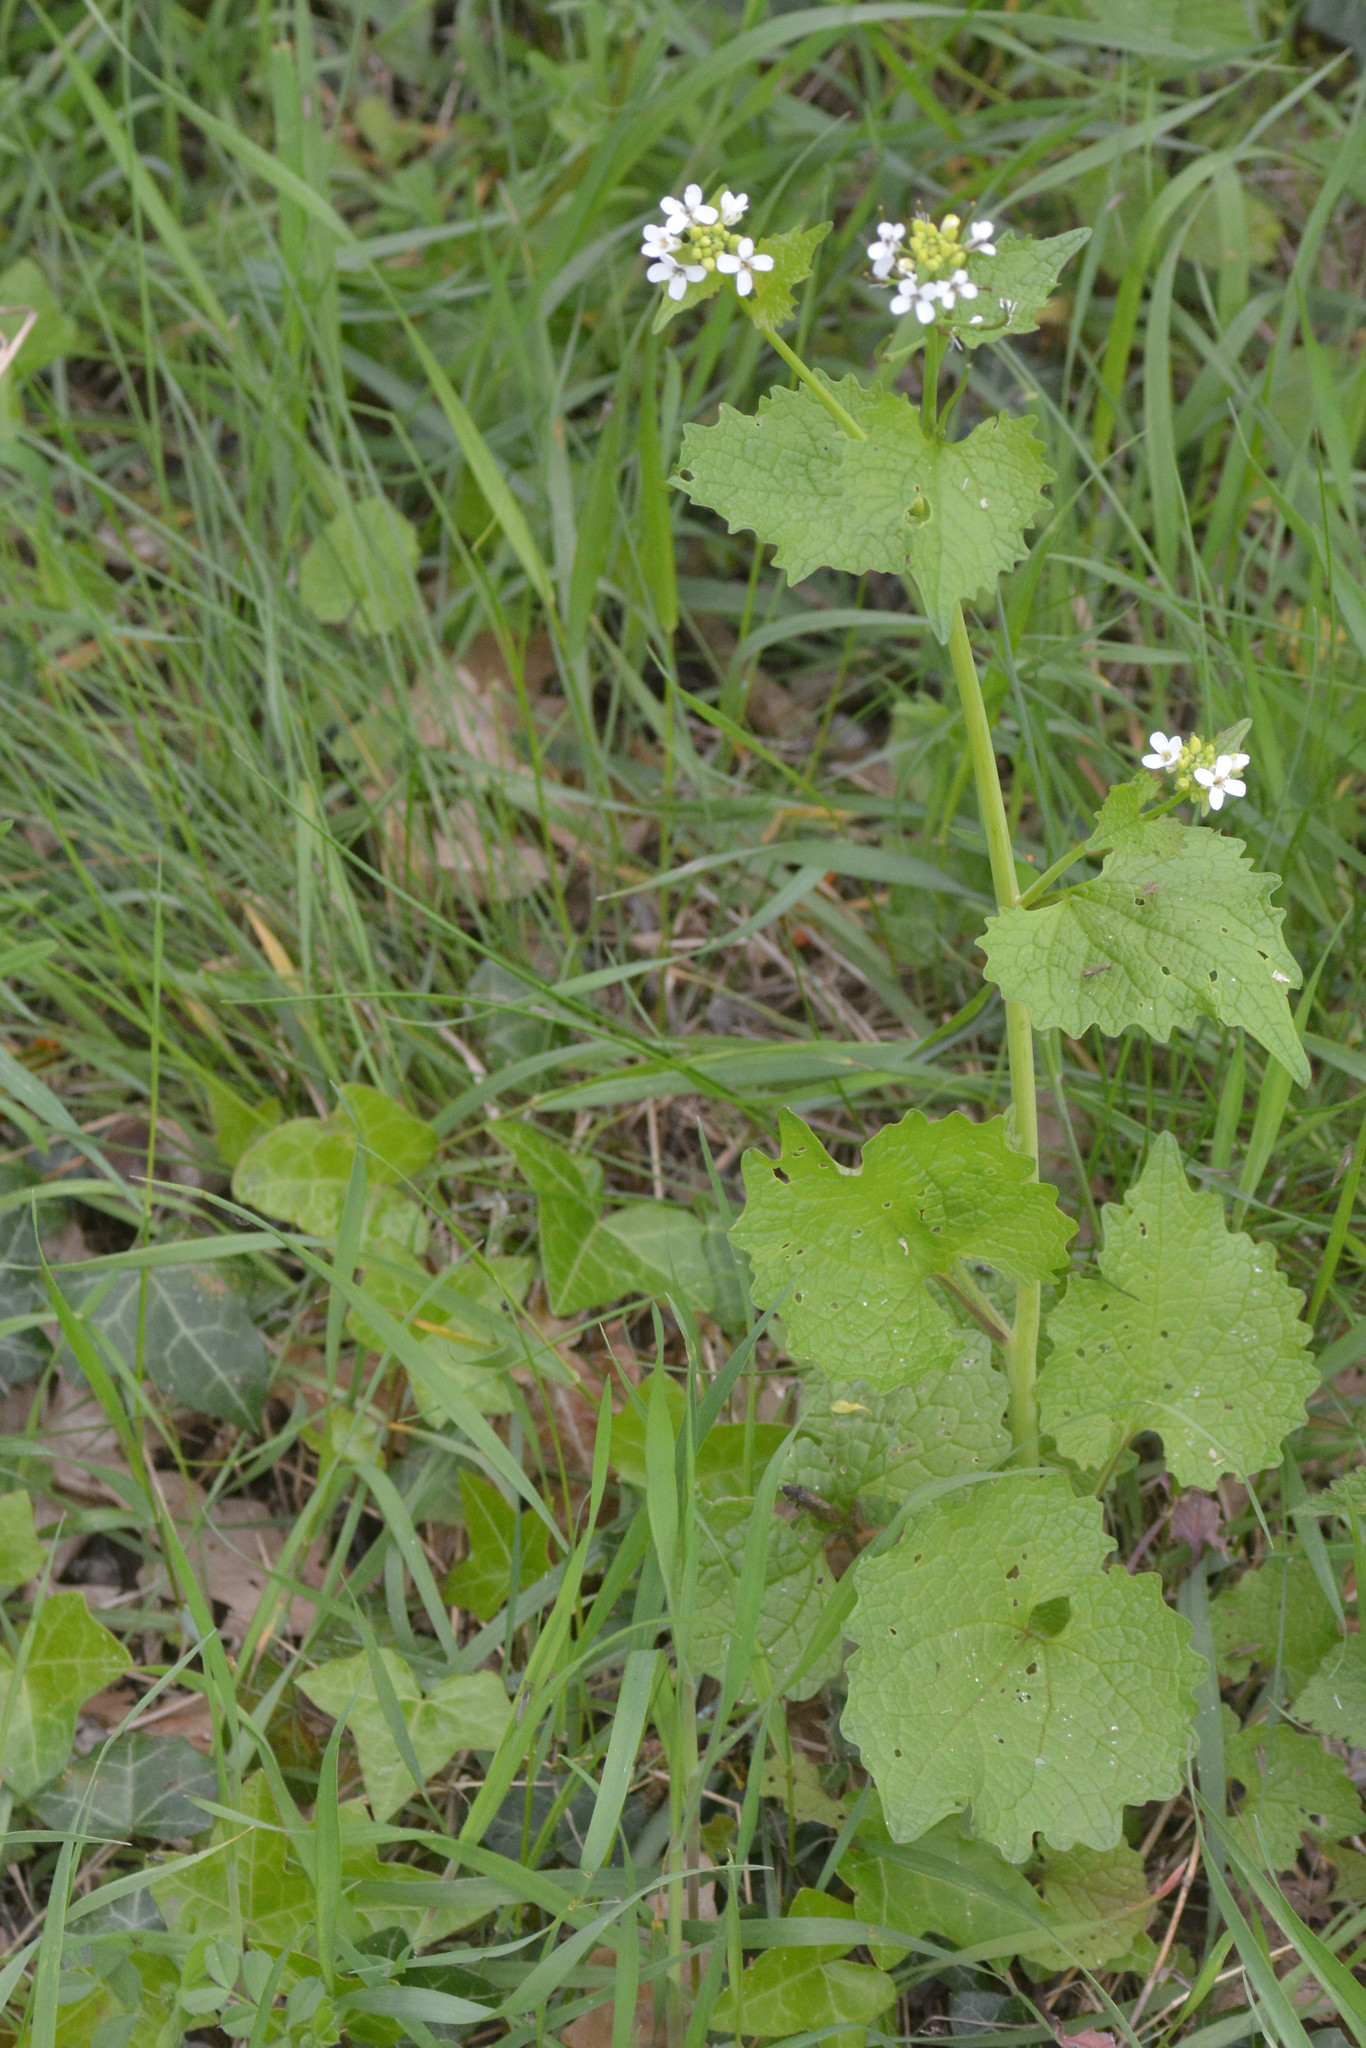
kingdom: Plantae
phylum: Tracheophyta
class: Magnoliopsida
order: Brassicales
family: Brassicaceae
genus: Alliaria
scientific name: Alliaria petiolata
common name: Garlic mustard
